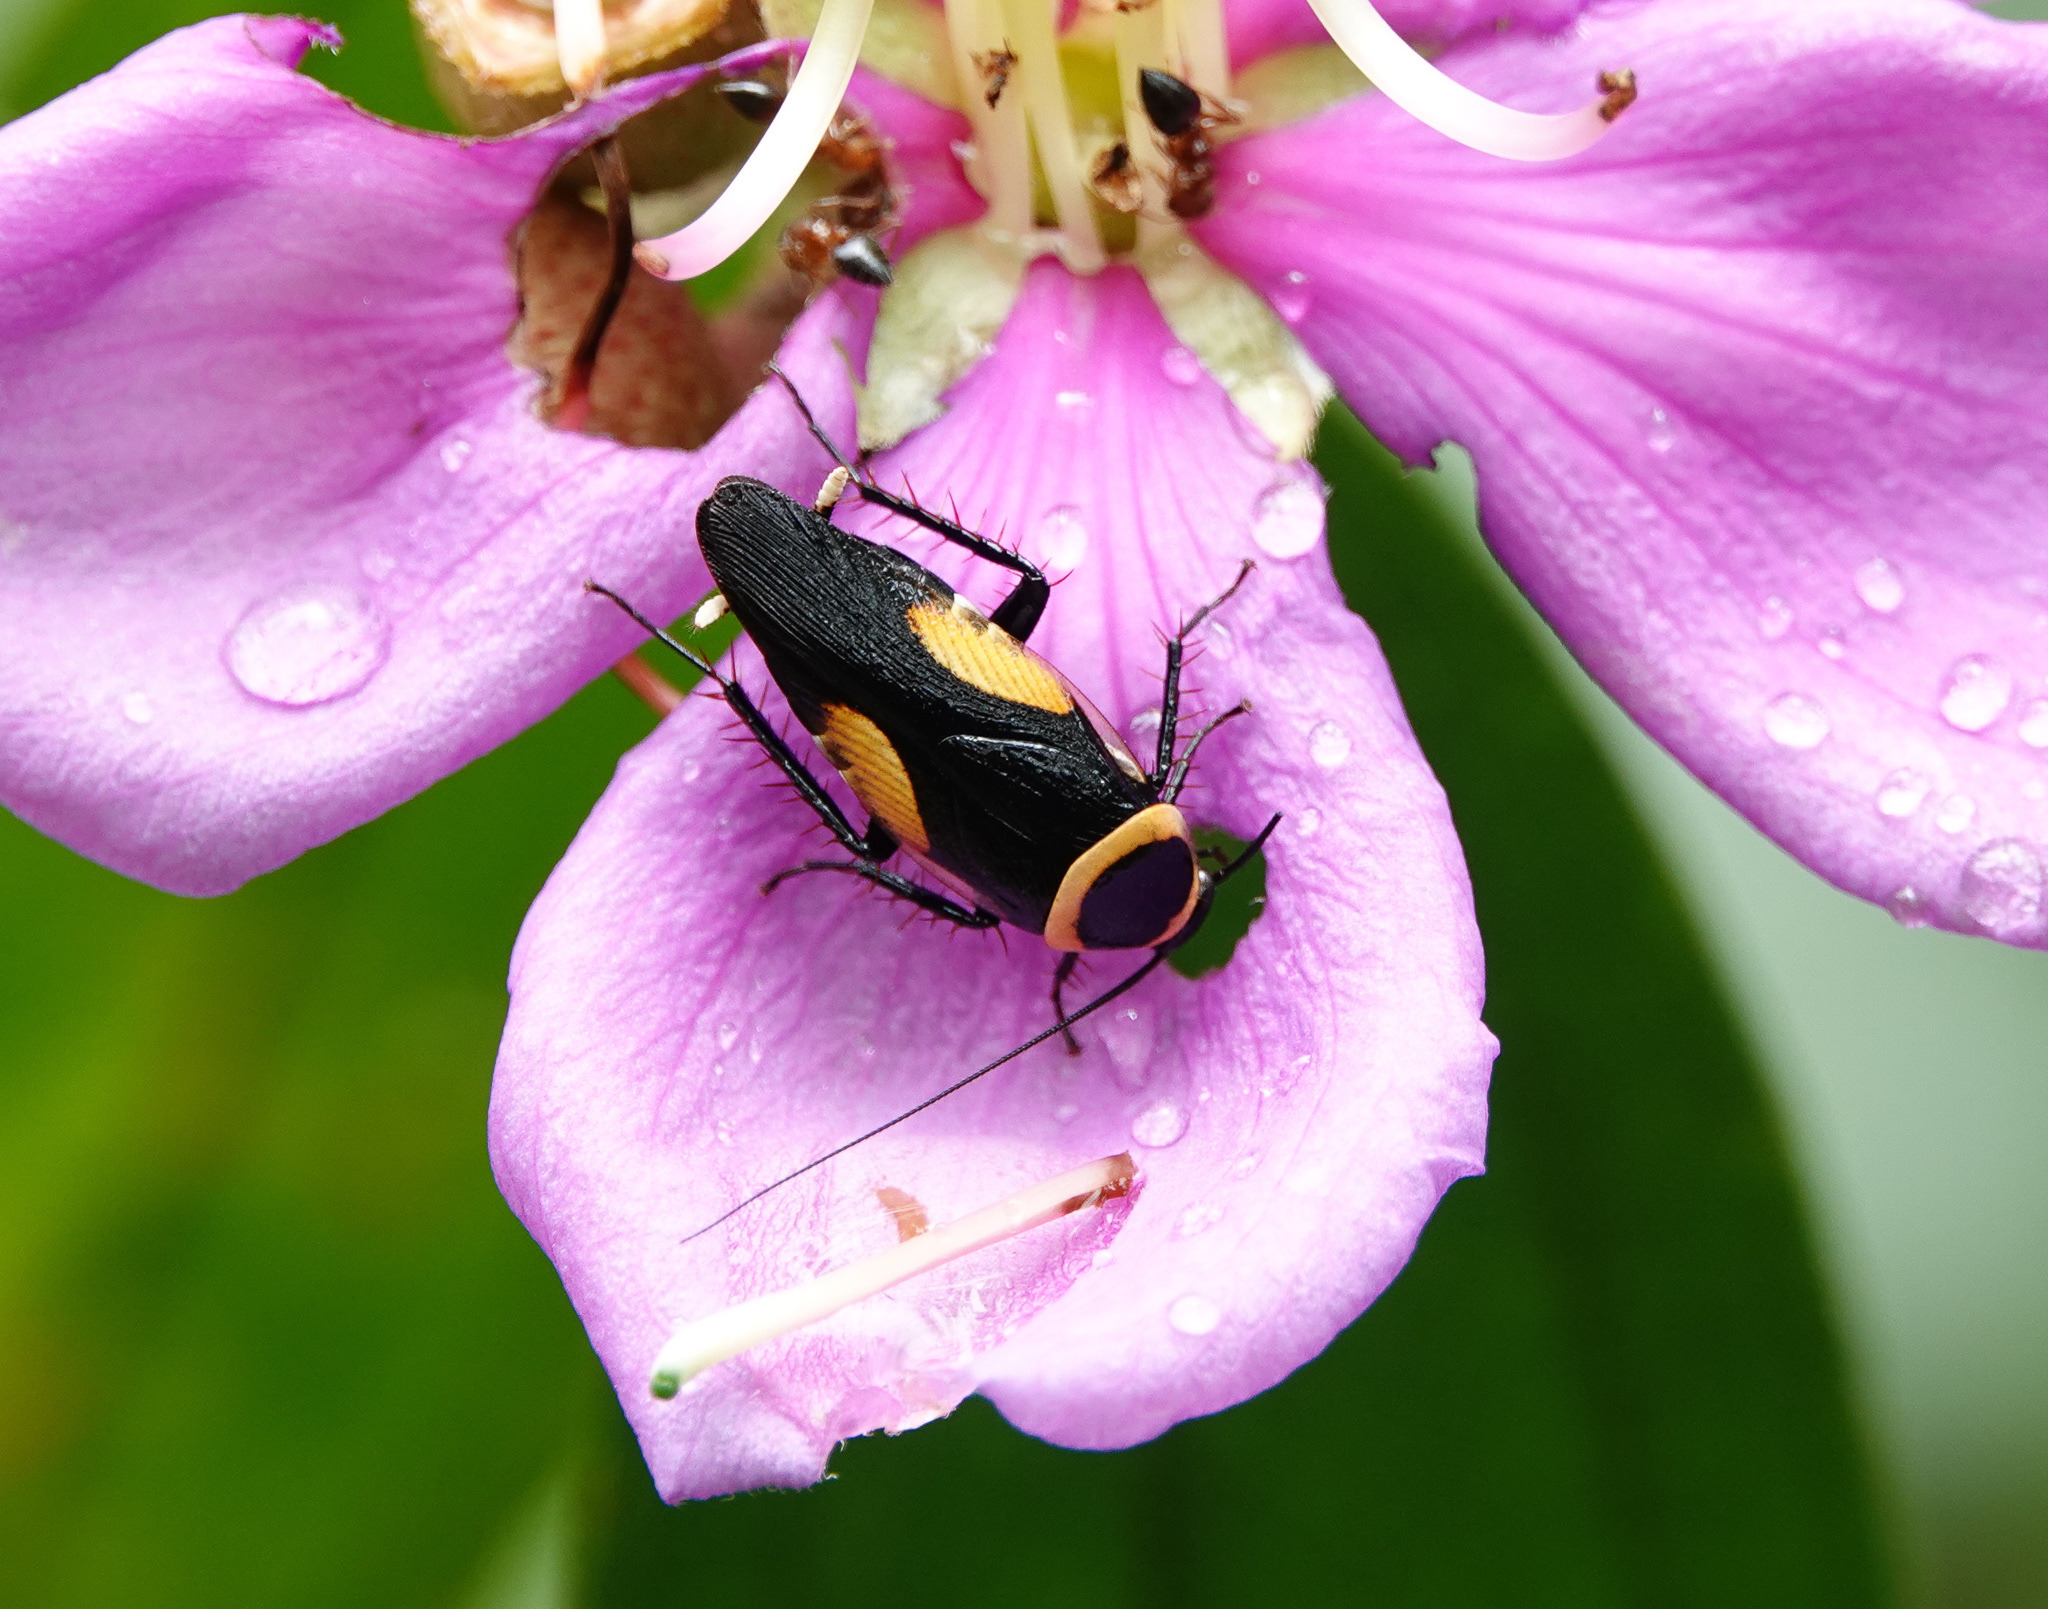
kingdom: Animalia
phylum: Arthropoda
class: Insecta
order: Blattodea
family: Ectobiidae
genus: Hemithyrsocera
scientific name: Hemithyrsocera vittata
